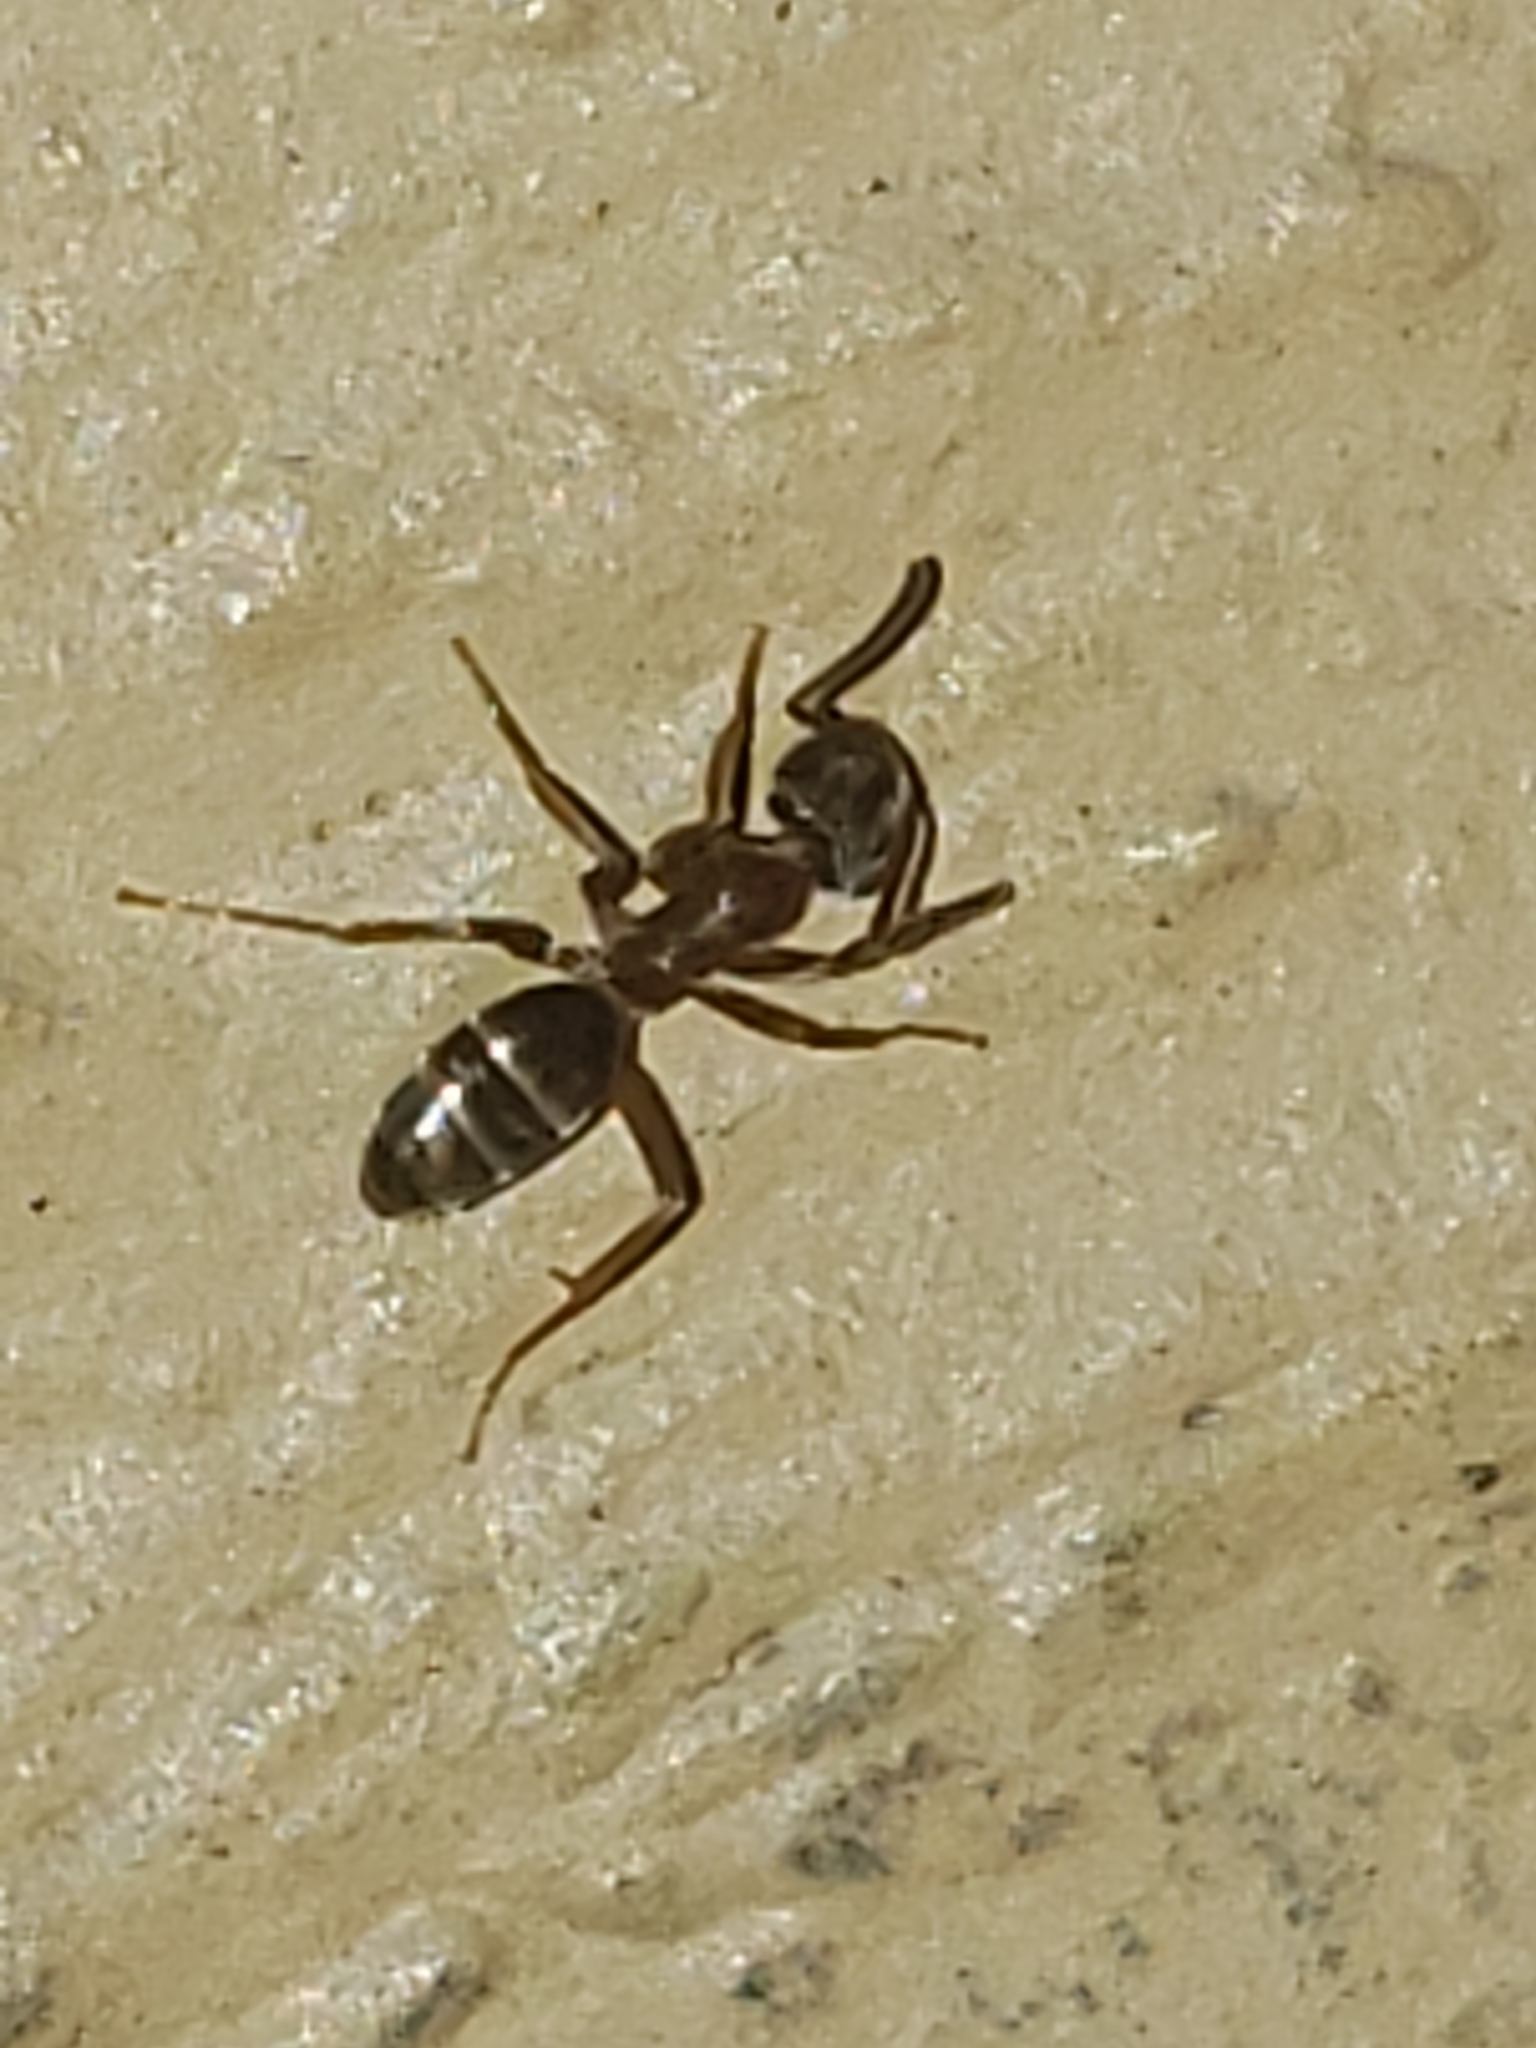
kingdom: Animalia
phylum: Arthropoda
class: Insecta
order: Hymenoptera
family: Formicidae
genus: Tapinoma
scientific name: Tapinoma sessile
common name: Odorous house ant
